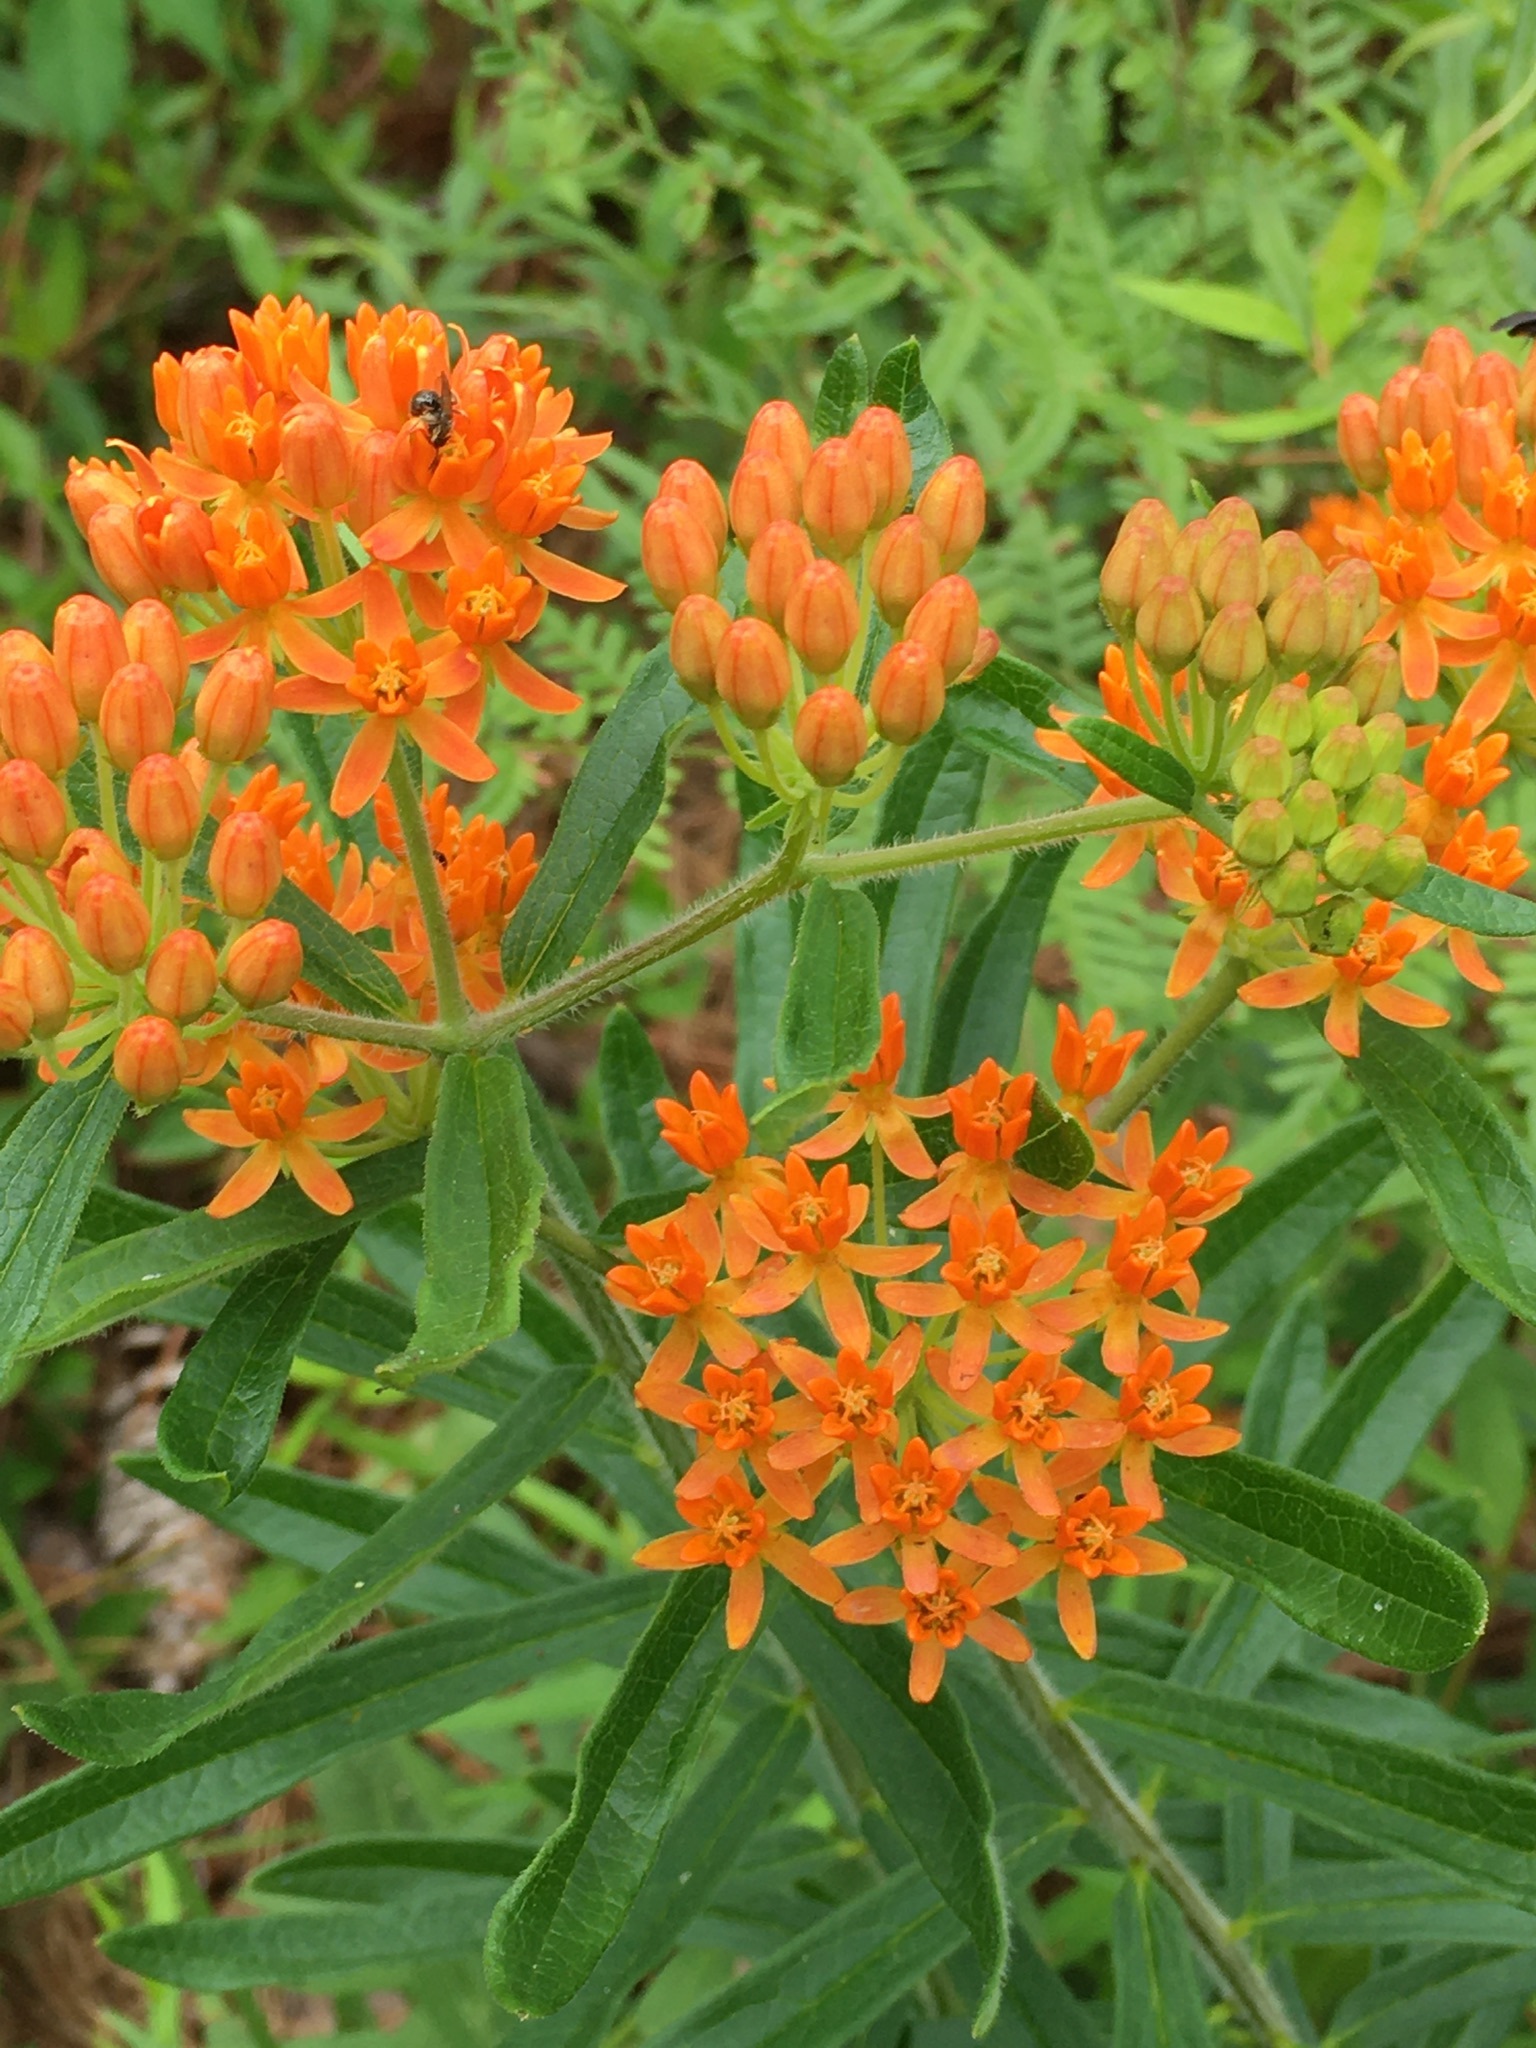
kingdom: Plantae
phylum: Tracheophyta
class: Magnoliopsida
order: Gentianales
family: Apocynaceae
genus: Asclepias
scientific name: Asclepias tuberosa
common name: Butterfly milkweed
